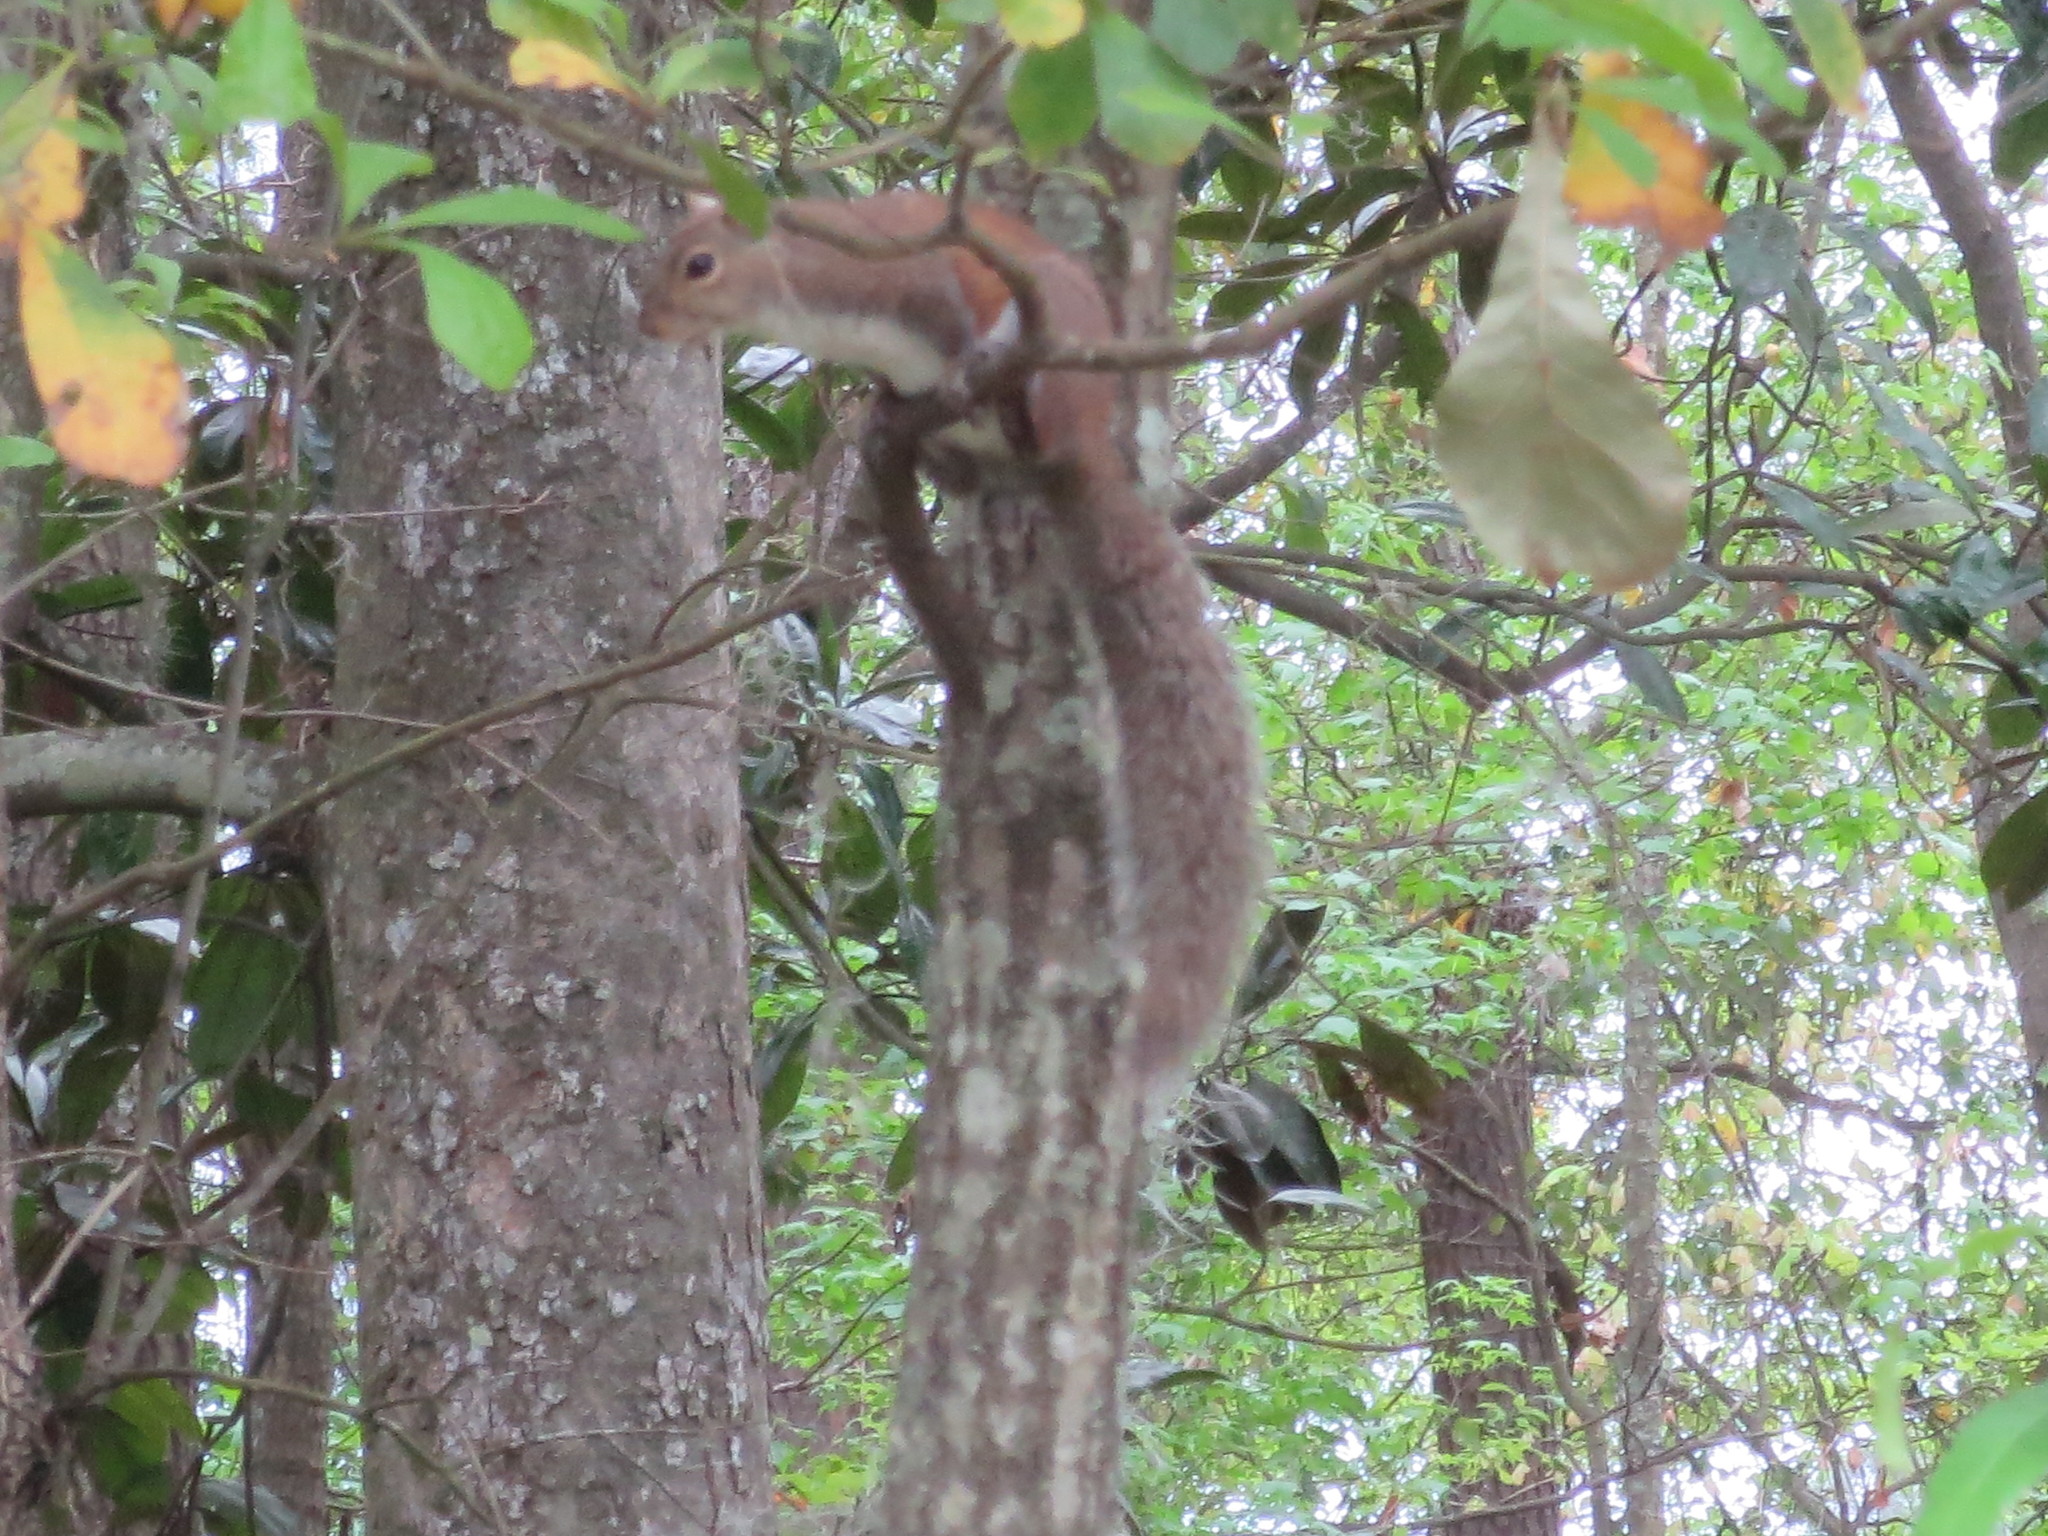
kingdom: Animalia
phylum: Chordata
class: Mammalia
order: Rodentia
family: Sciuridae
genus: Sciurus
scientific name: Sciurus carolinensis
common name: Eastern gray squirrel
